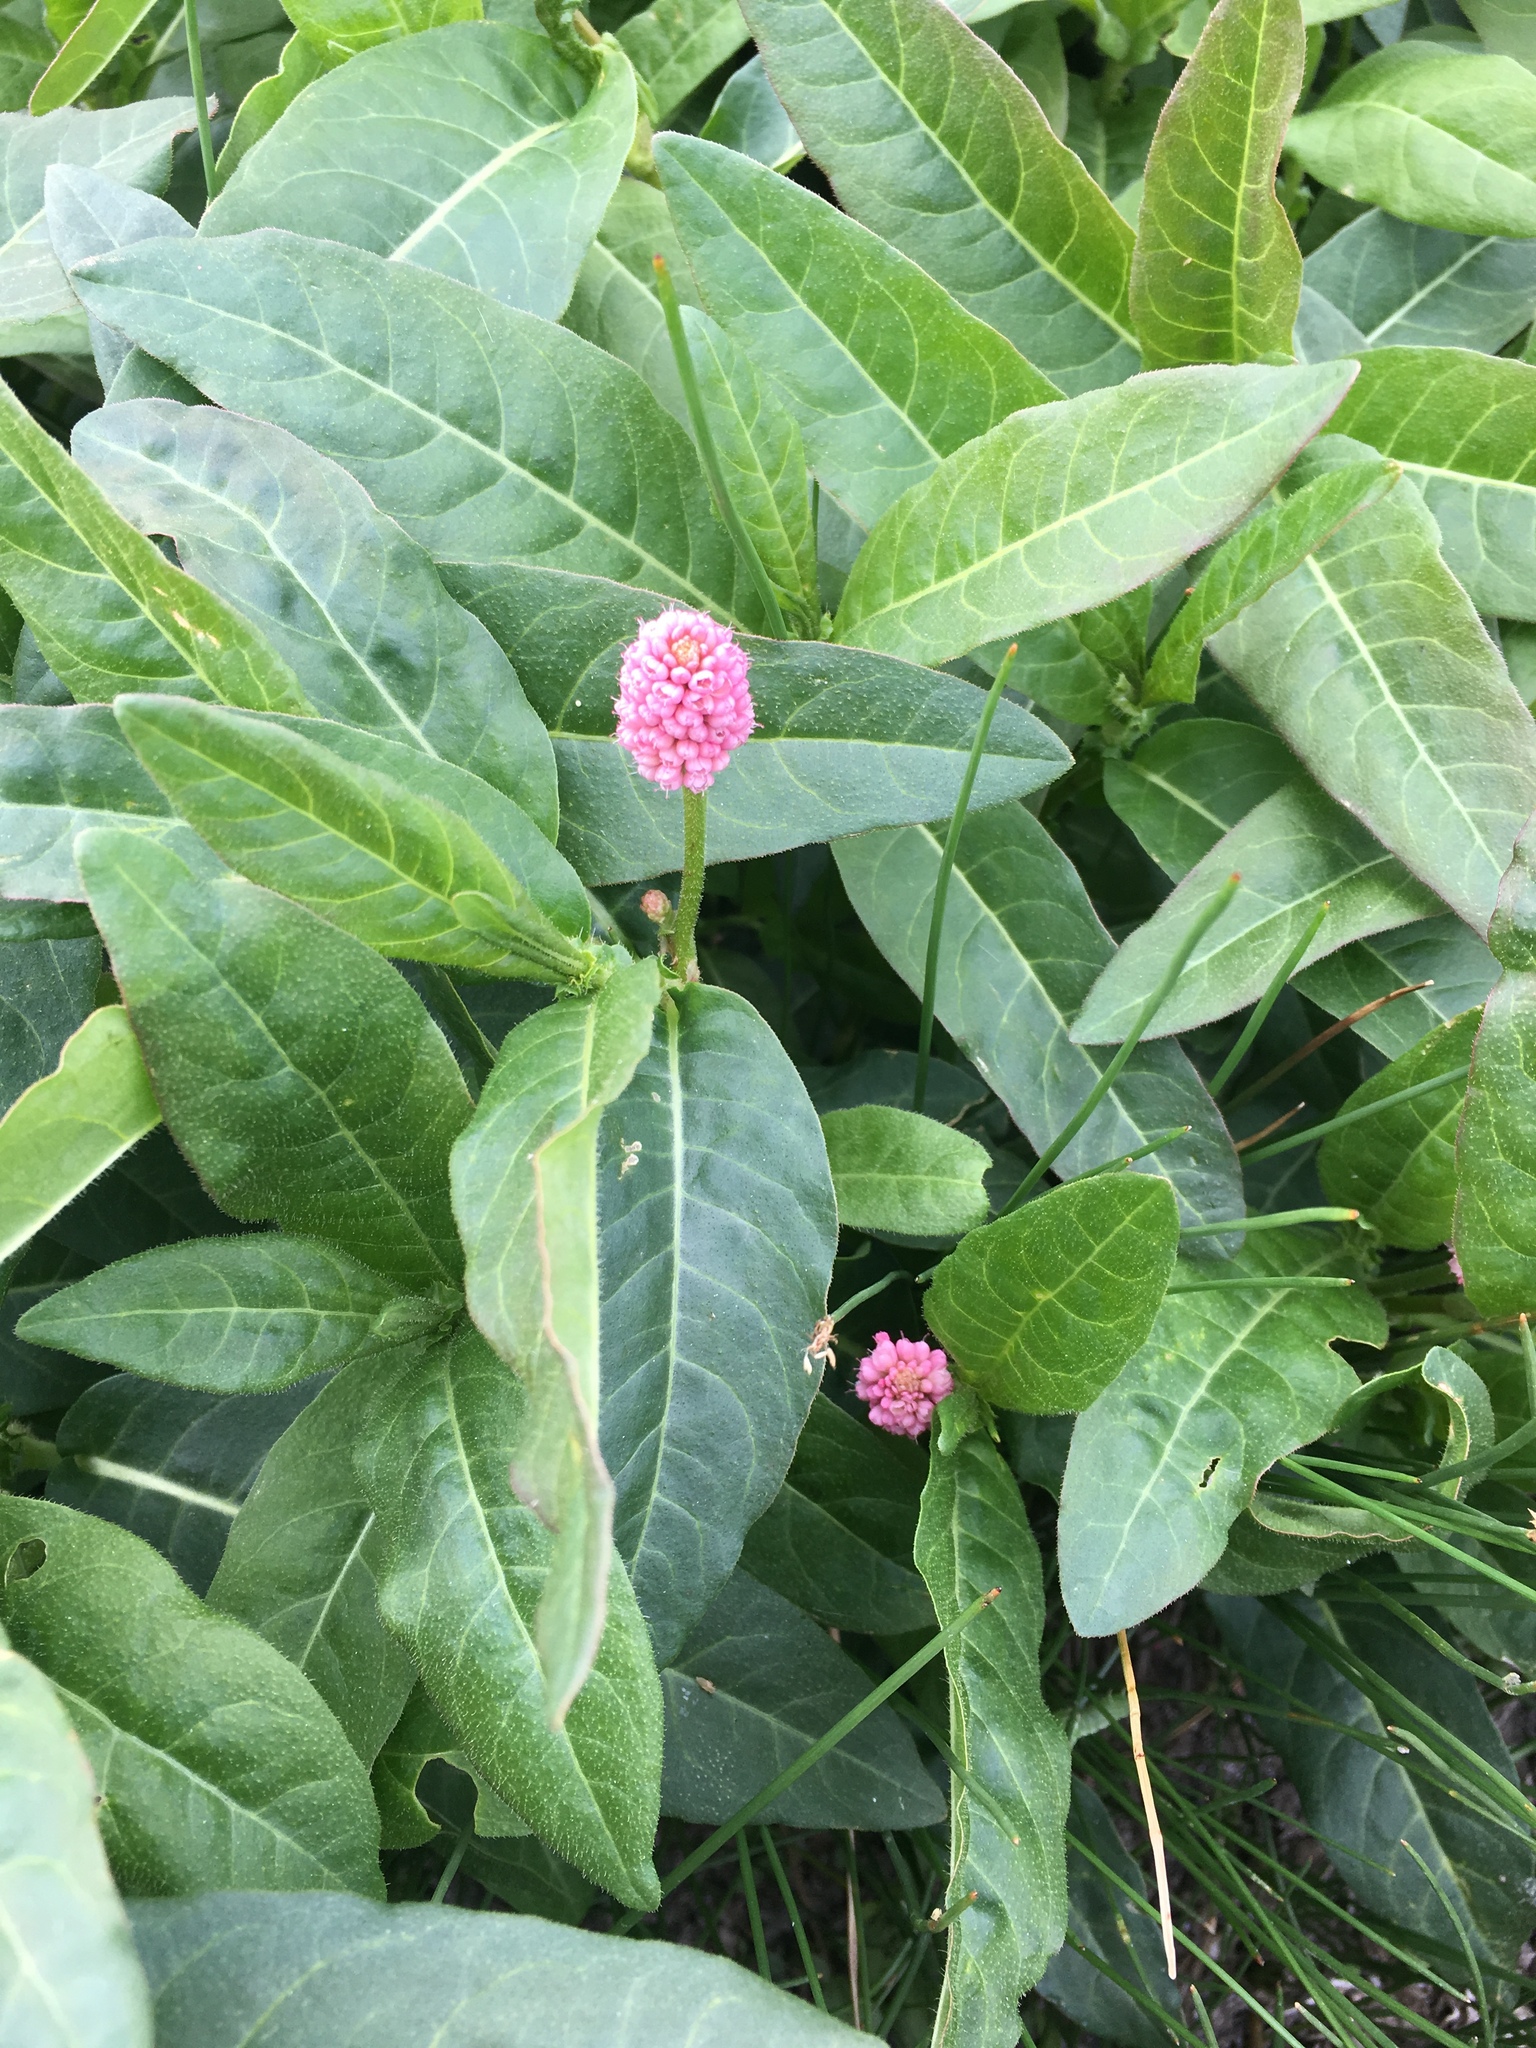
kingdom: Plantae
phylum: Tracheophyta
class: Magnoliopsida
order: Caryophyllales
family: Polygonaceae
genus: Persicaria
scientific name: Persicaria amphibia
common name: Amphibious bistort
